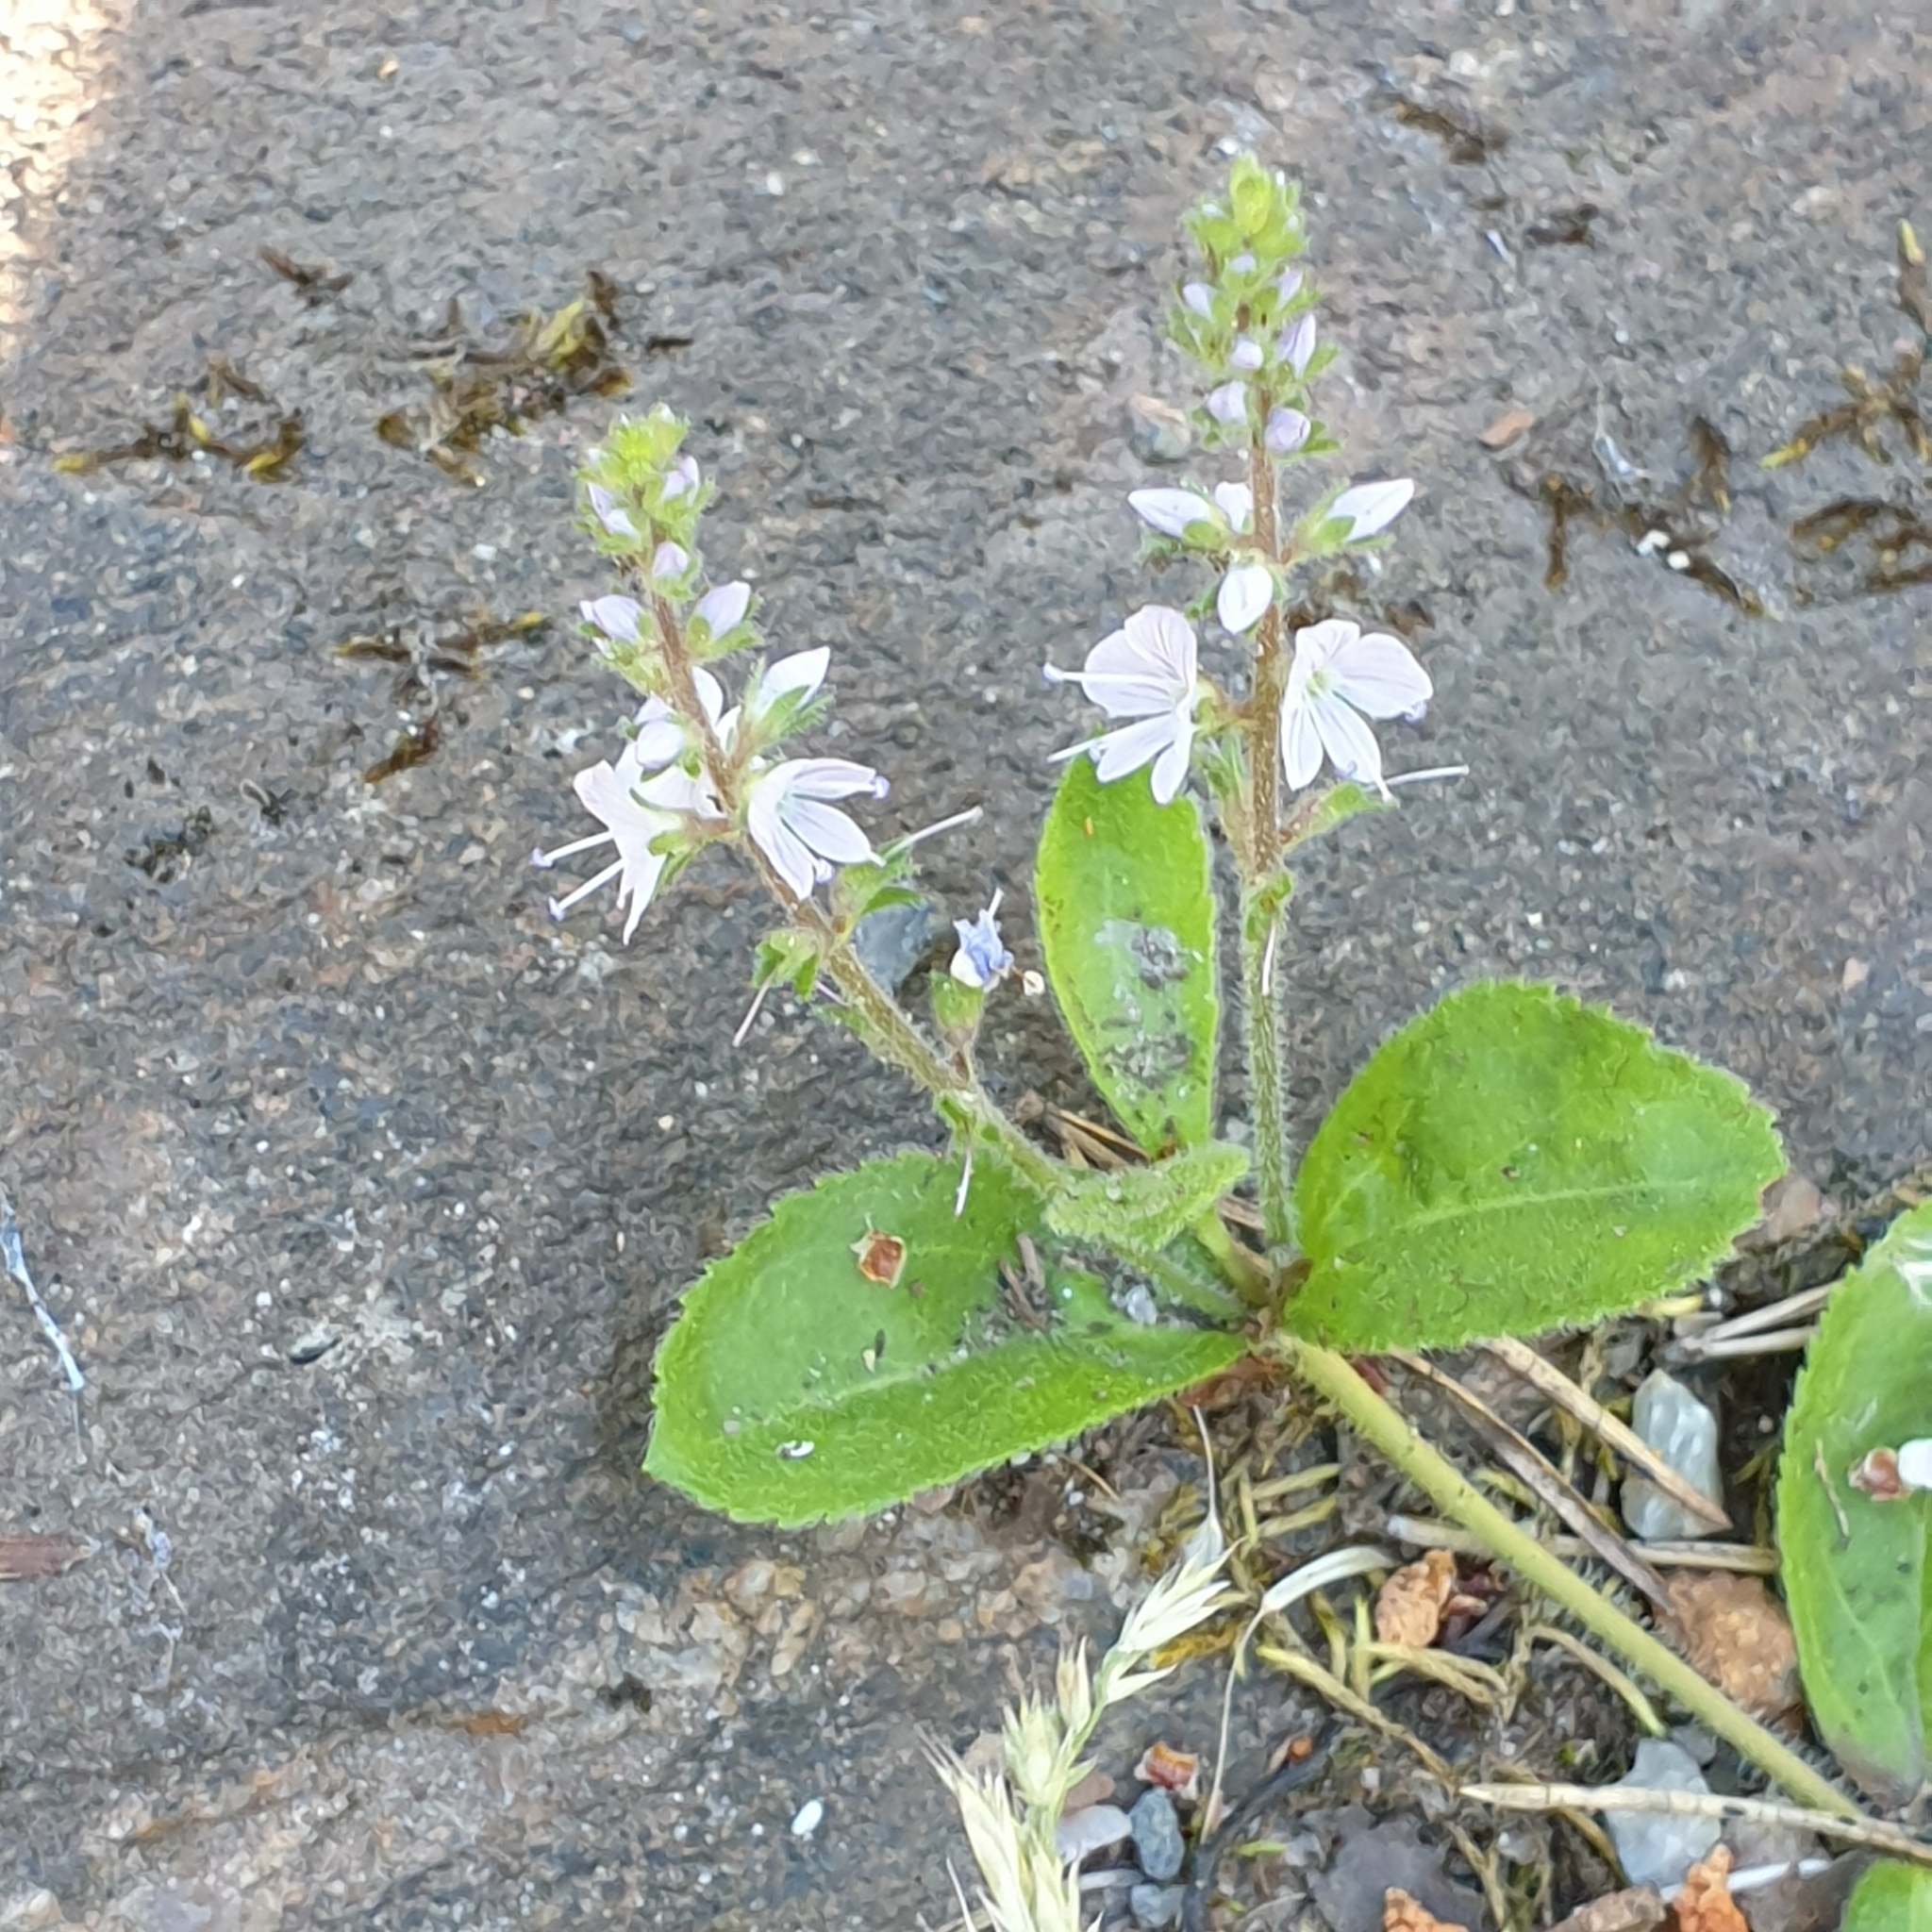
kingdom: Plantae
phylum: Tracheophyta
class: Magnoliopsida
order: Lamiales
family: Plantaginaceae
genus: Veronica
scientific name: Veronica officinalis
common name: Common speedwell
